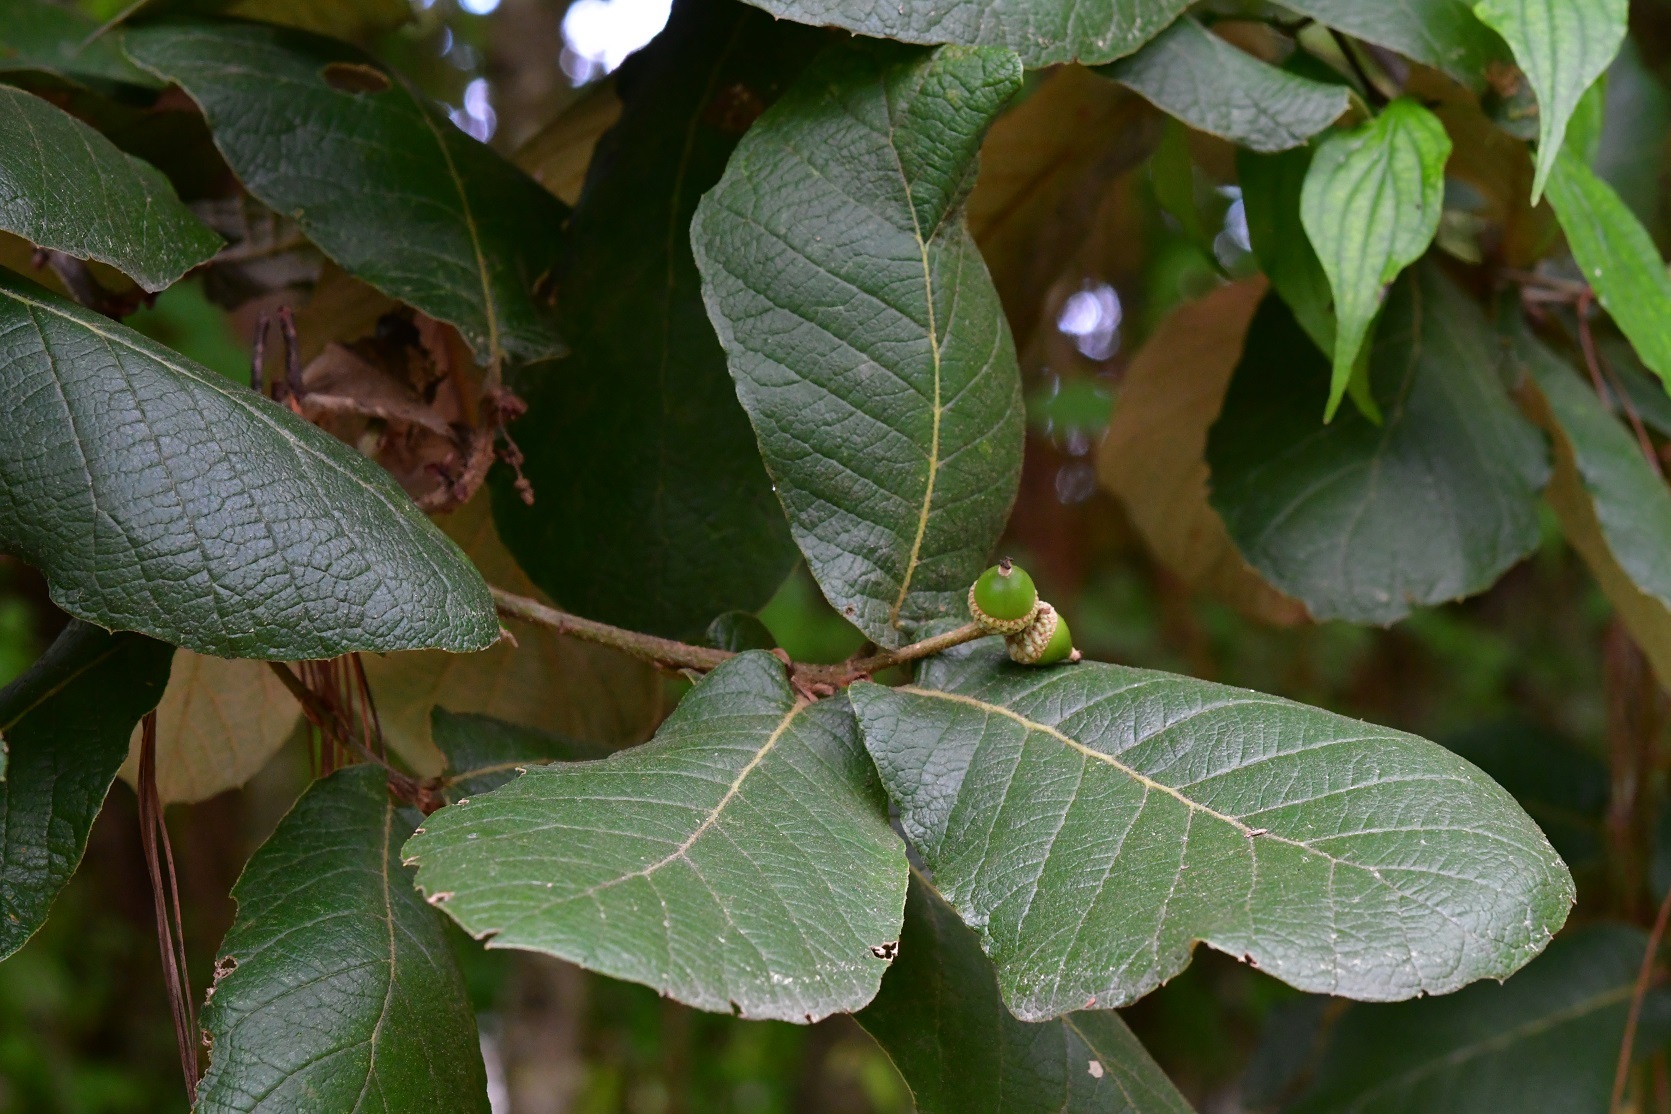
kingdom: Plantae
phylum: Tracheophyta
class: Magnoliopsida
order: Fagales
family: Fagaceae
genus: Quercus
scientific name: Quercus rugosa
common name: Netleaf oak
